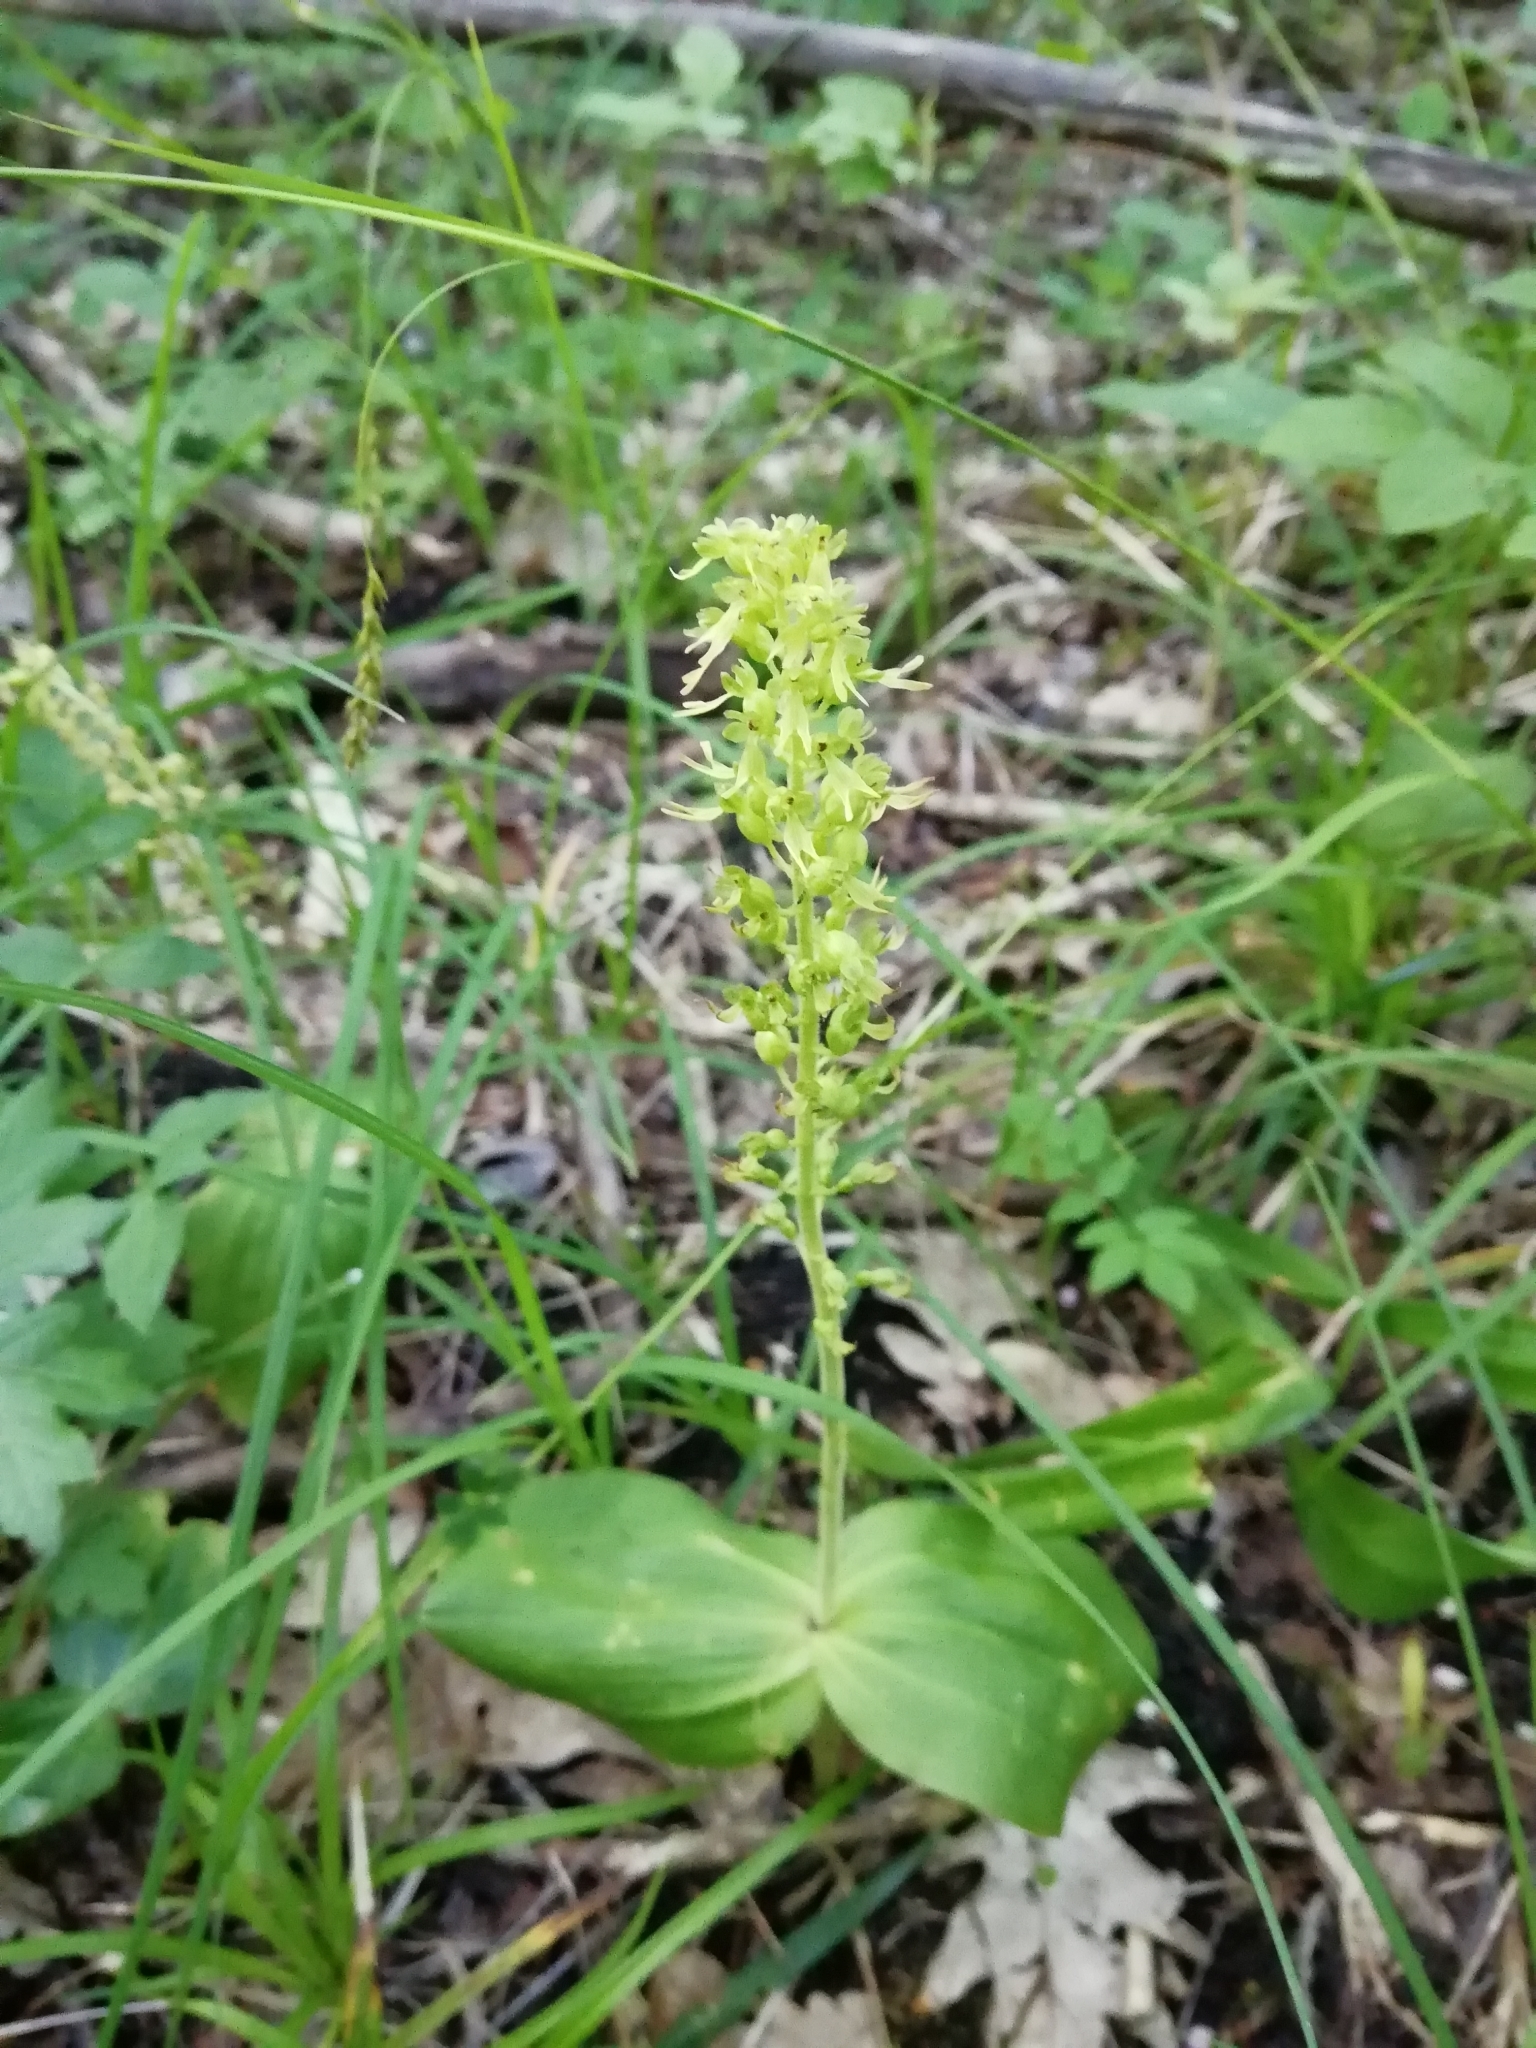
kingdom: Plantae
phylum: Tracheophyta
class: Liliopsida
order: Asparagales
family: Orchidaceae
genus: Neottia
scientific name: Neottia ovata
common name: Common twayblade
